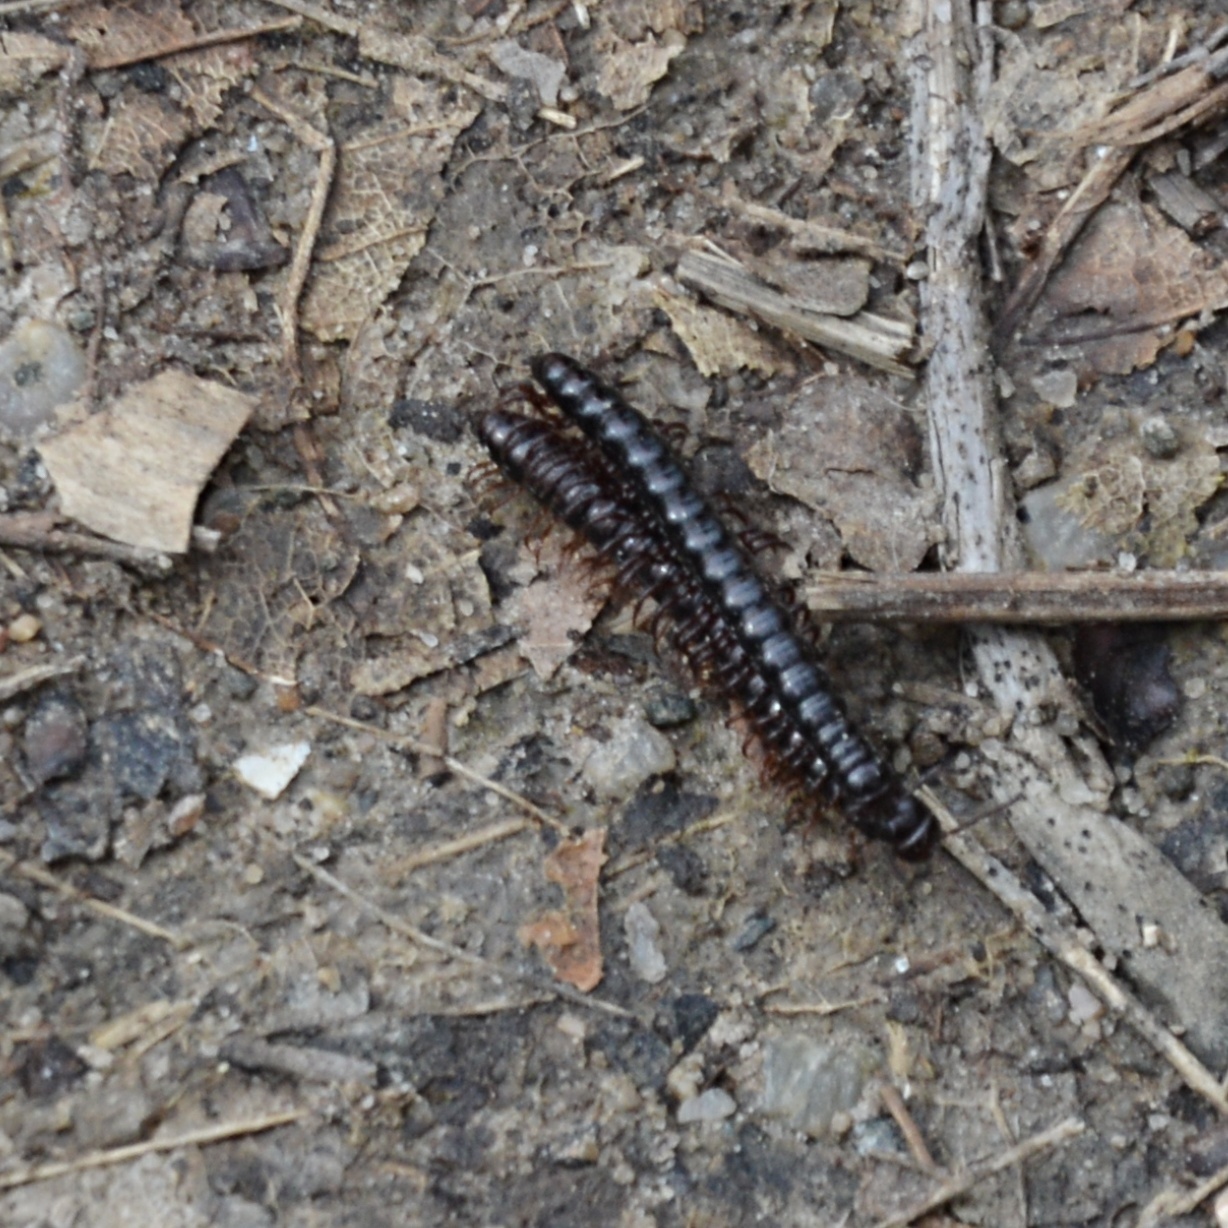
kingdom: Animalia
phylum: Arthropoda
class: Diplopoda
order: Polydesmida
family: Paradoxosomatidae
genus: Strongylosoma
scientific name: Strongylosoma stigmatosus
